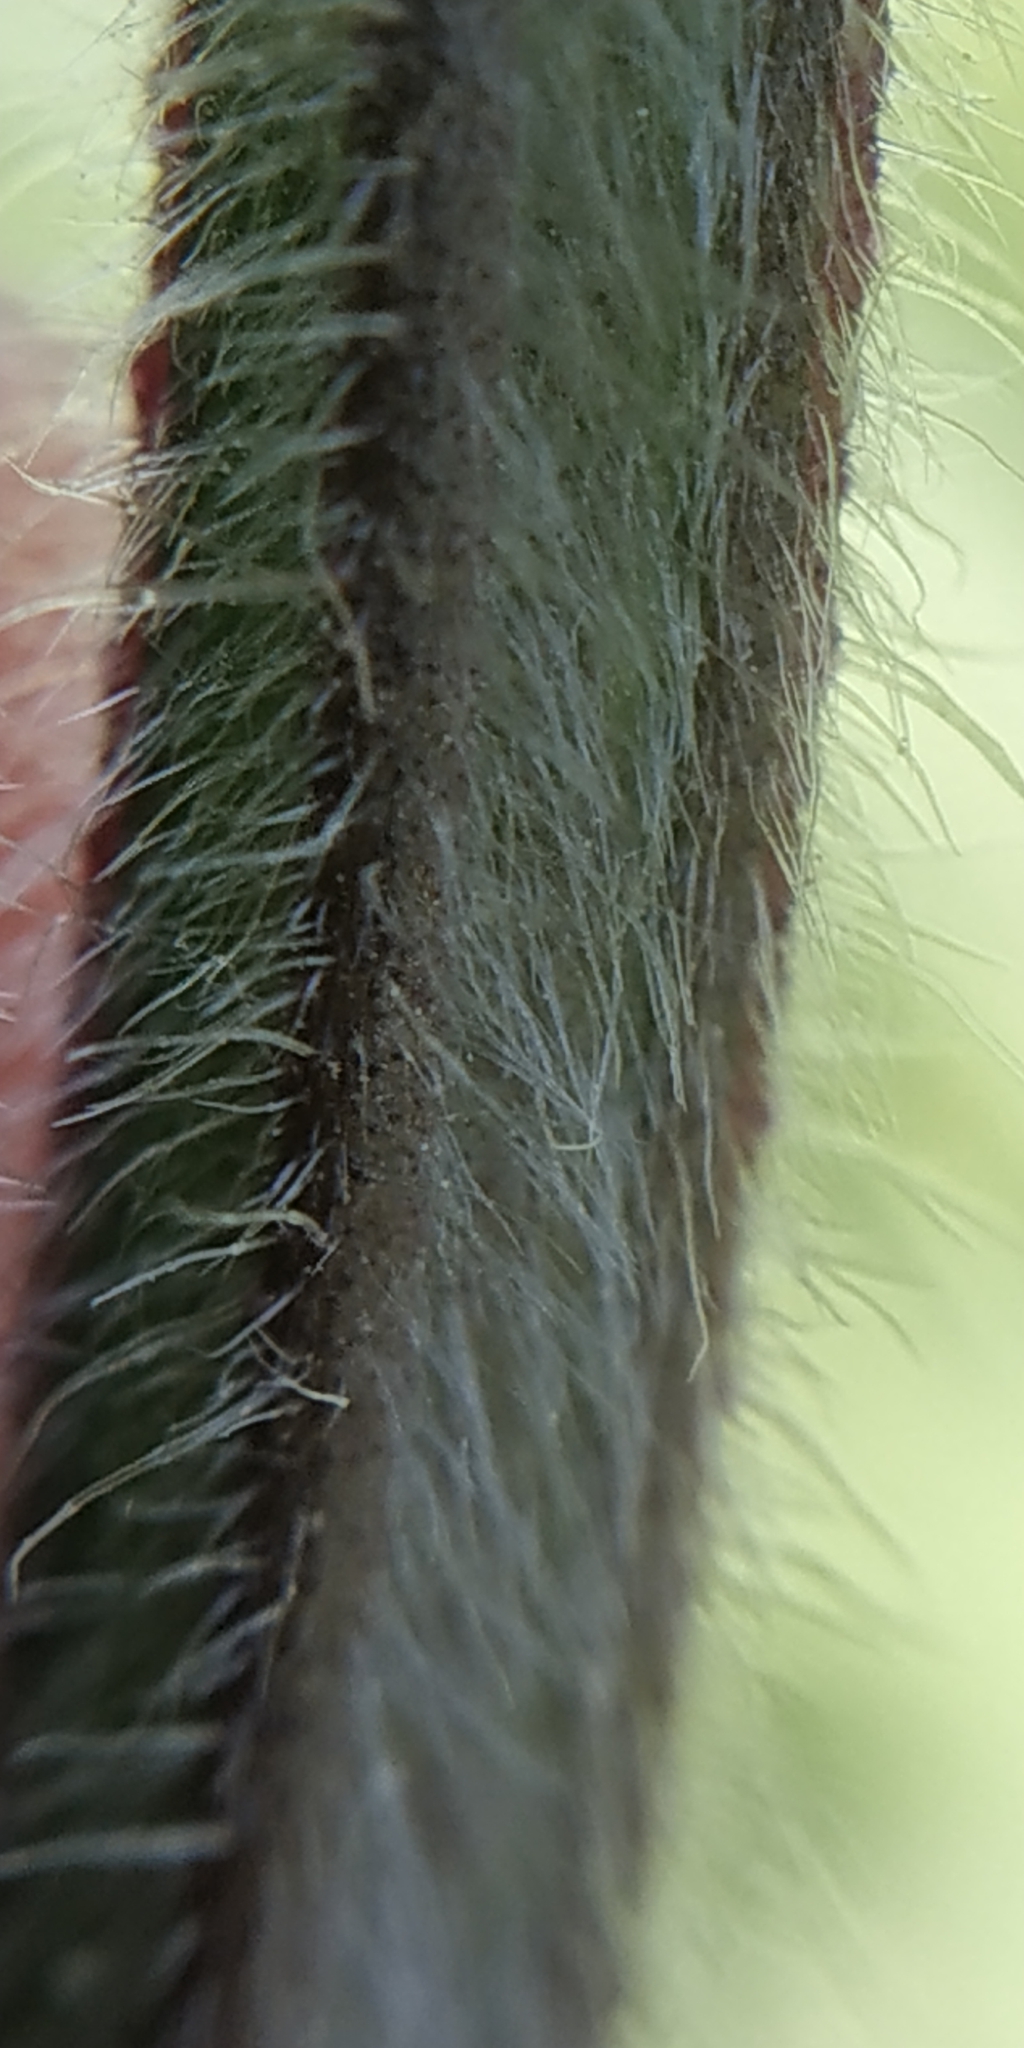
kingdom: Plantae
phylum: Tracheophyta
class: Magnoliopsida
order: Lamiales
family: Lamiaceae
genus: Stachys
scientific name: Stachys palustris
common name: Marsh woundwort
